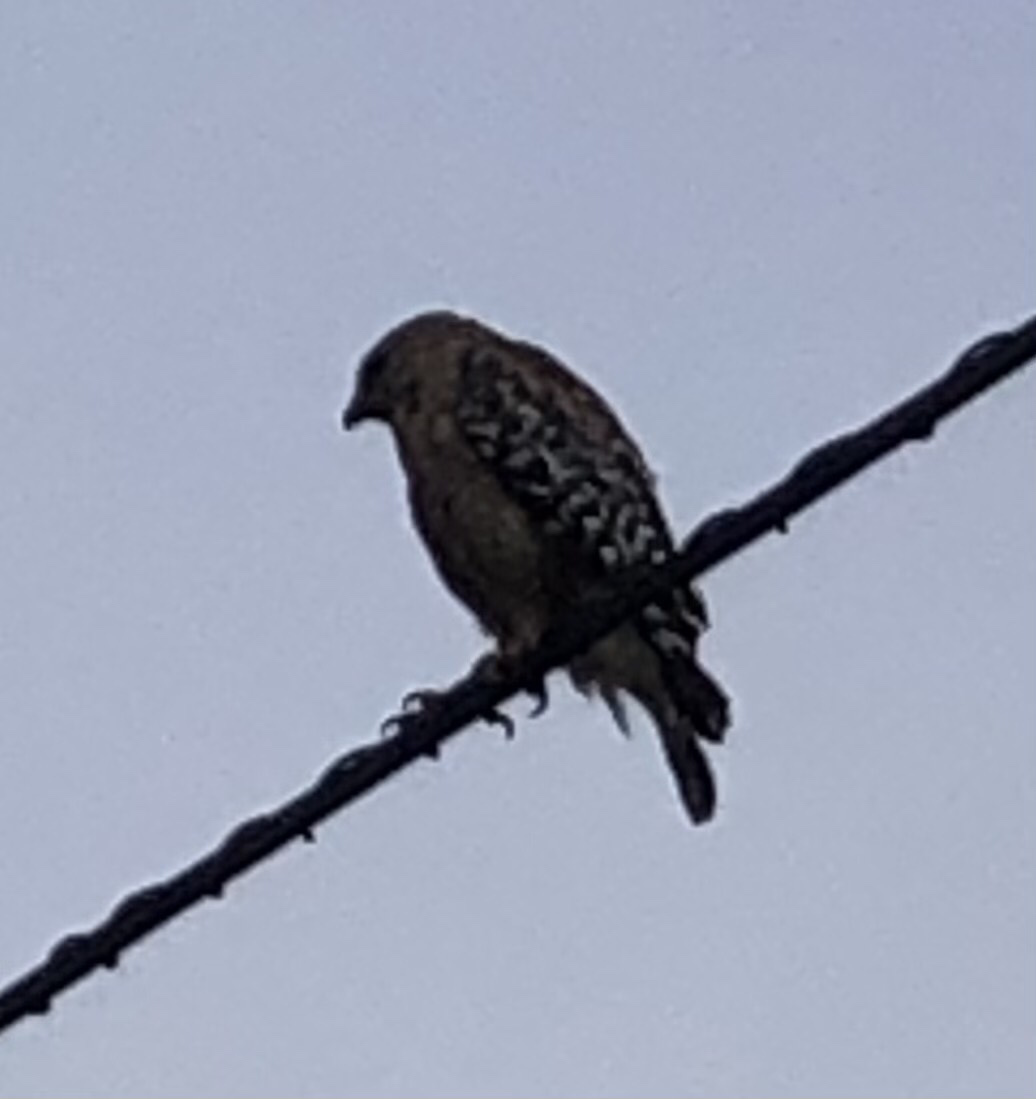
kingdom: Animalia
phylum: Chordata
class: Aves
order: Accipitriformes
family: Accipitridae
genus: Buteo
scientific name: Buteo lineatus
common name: Red-shouldered hawk
